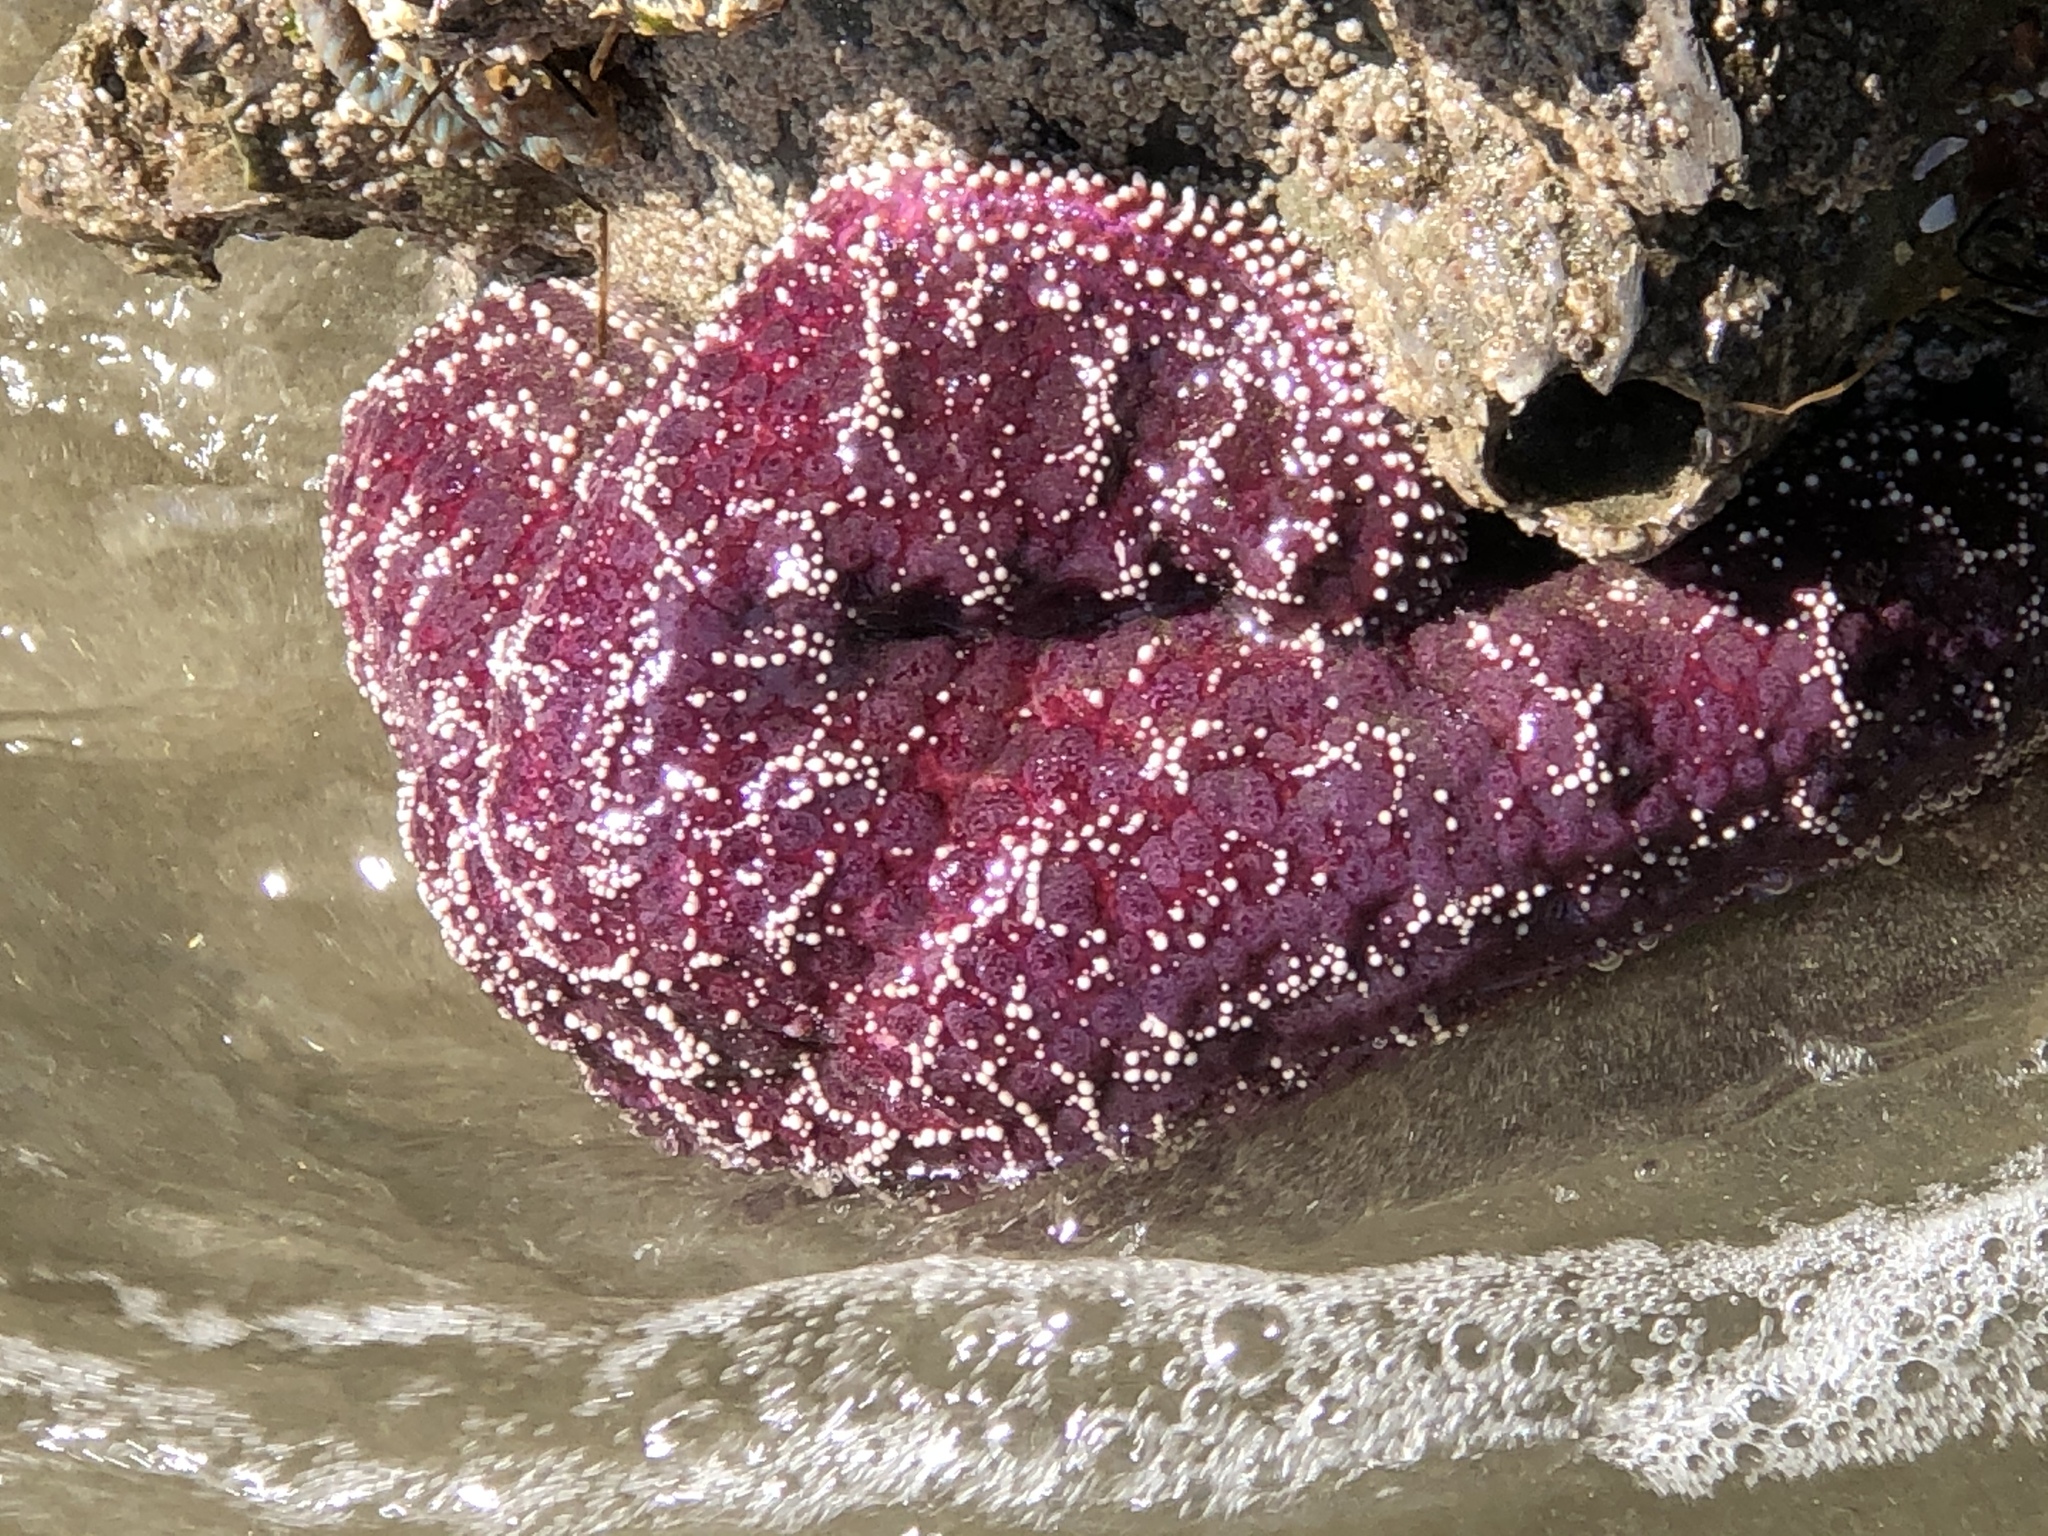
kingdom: Animalia
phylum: Echinodermata
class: Asteroidea
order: Forcipulatida
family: Asteriidae
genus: Pisaster
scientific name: Pisaster ochraceus
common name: Ochre stars
